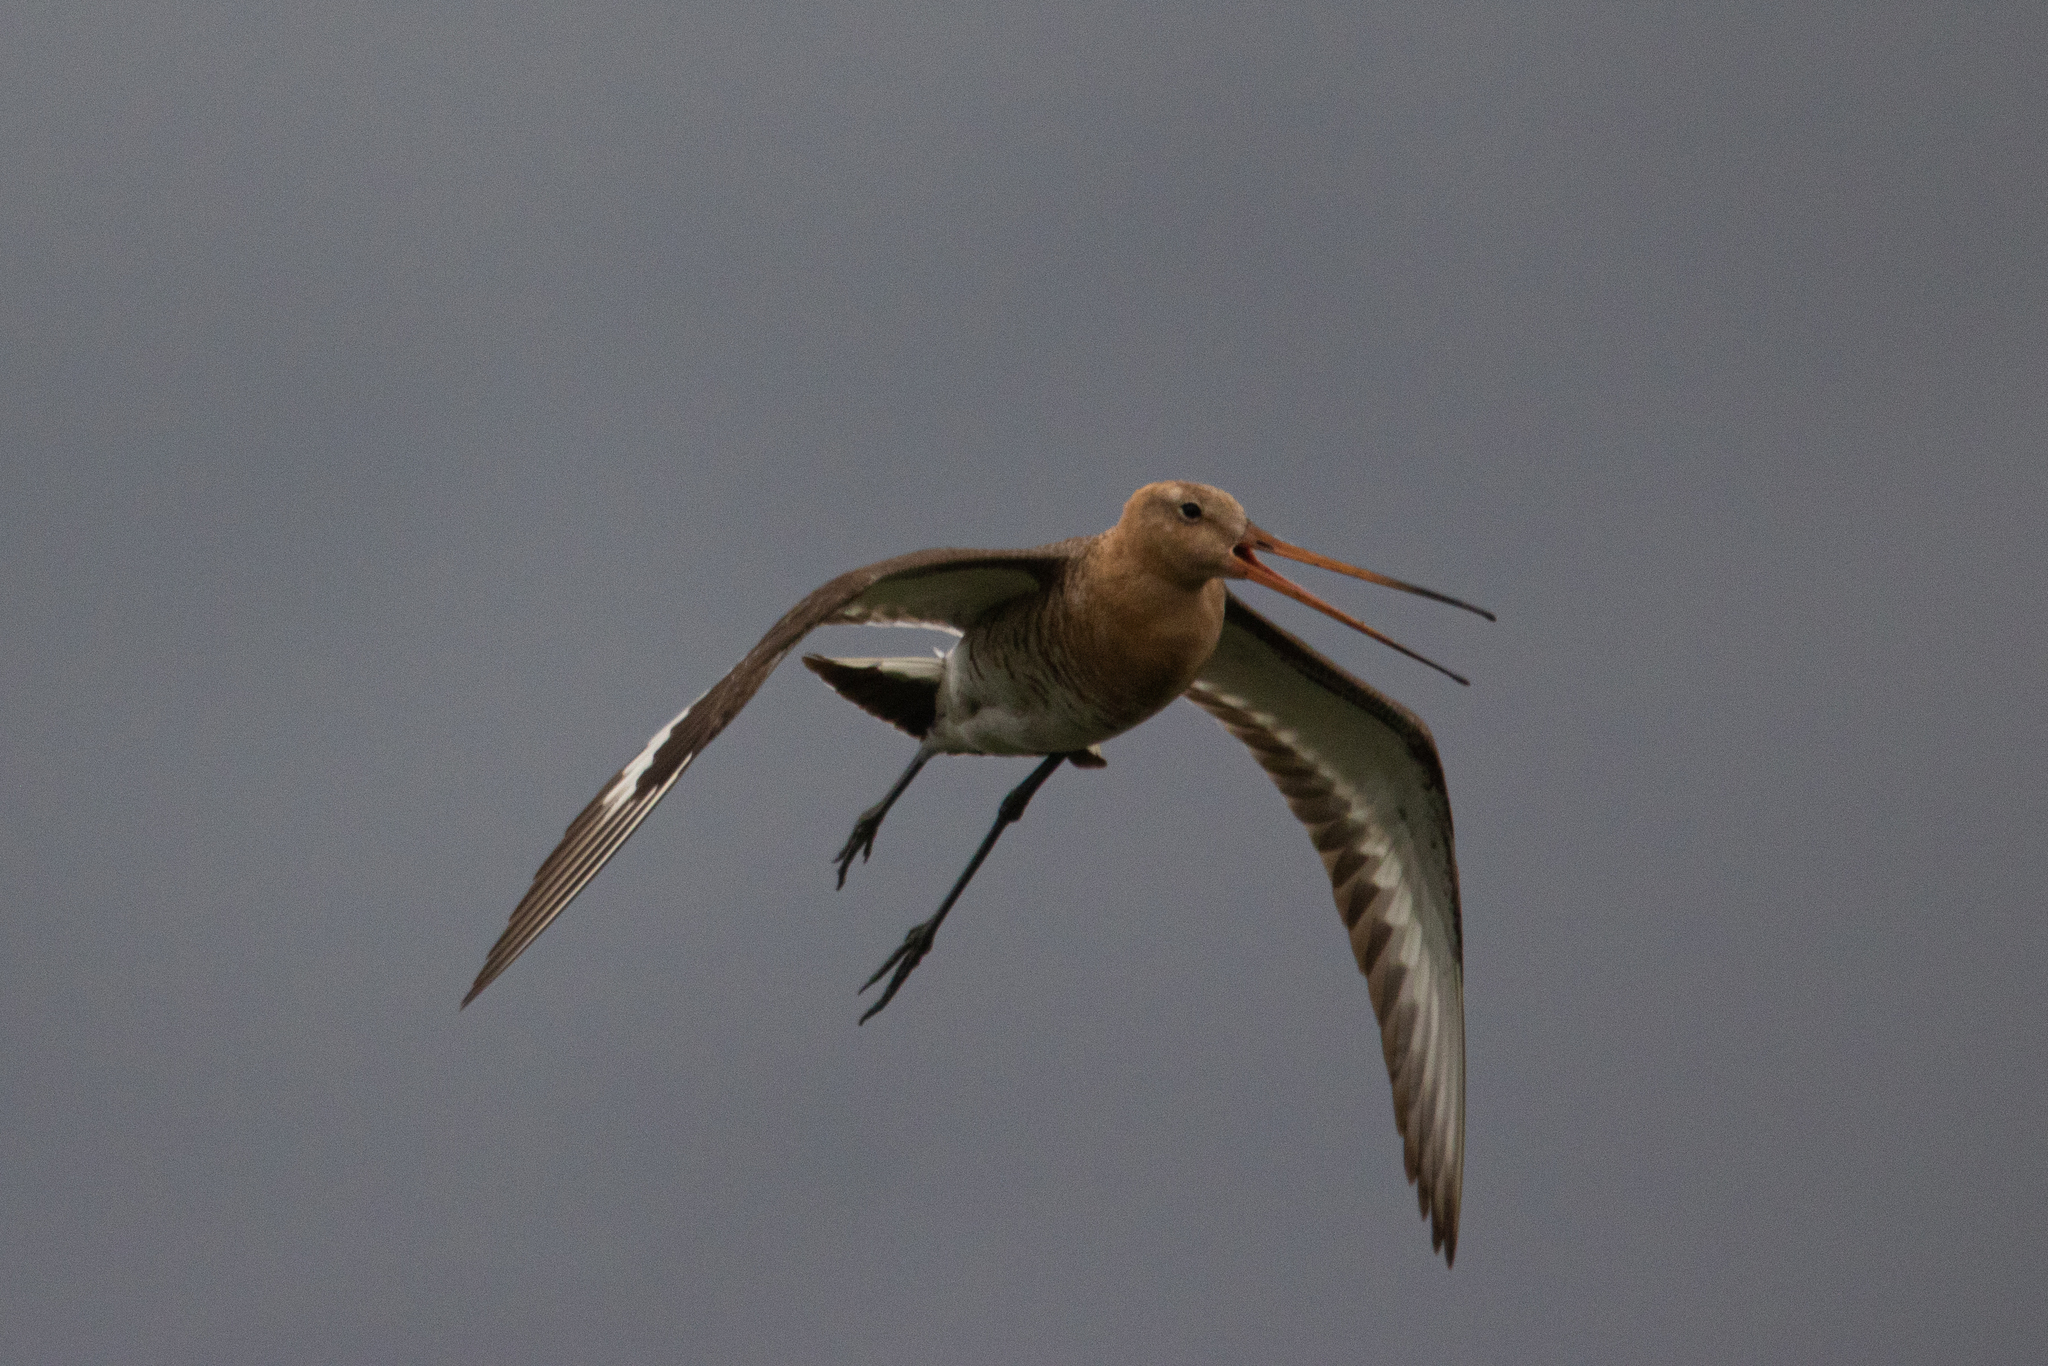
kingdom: Animalia
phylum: Chordata
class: Aves
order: Charadriiformes
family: Scolopacidae
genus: Limosa
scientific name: Limosa limosa
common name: Black-tailed godwit
